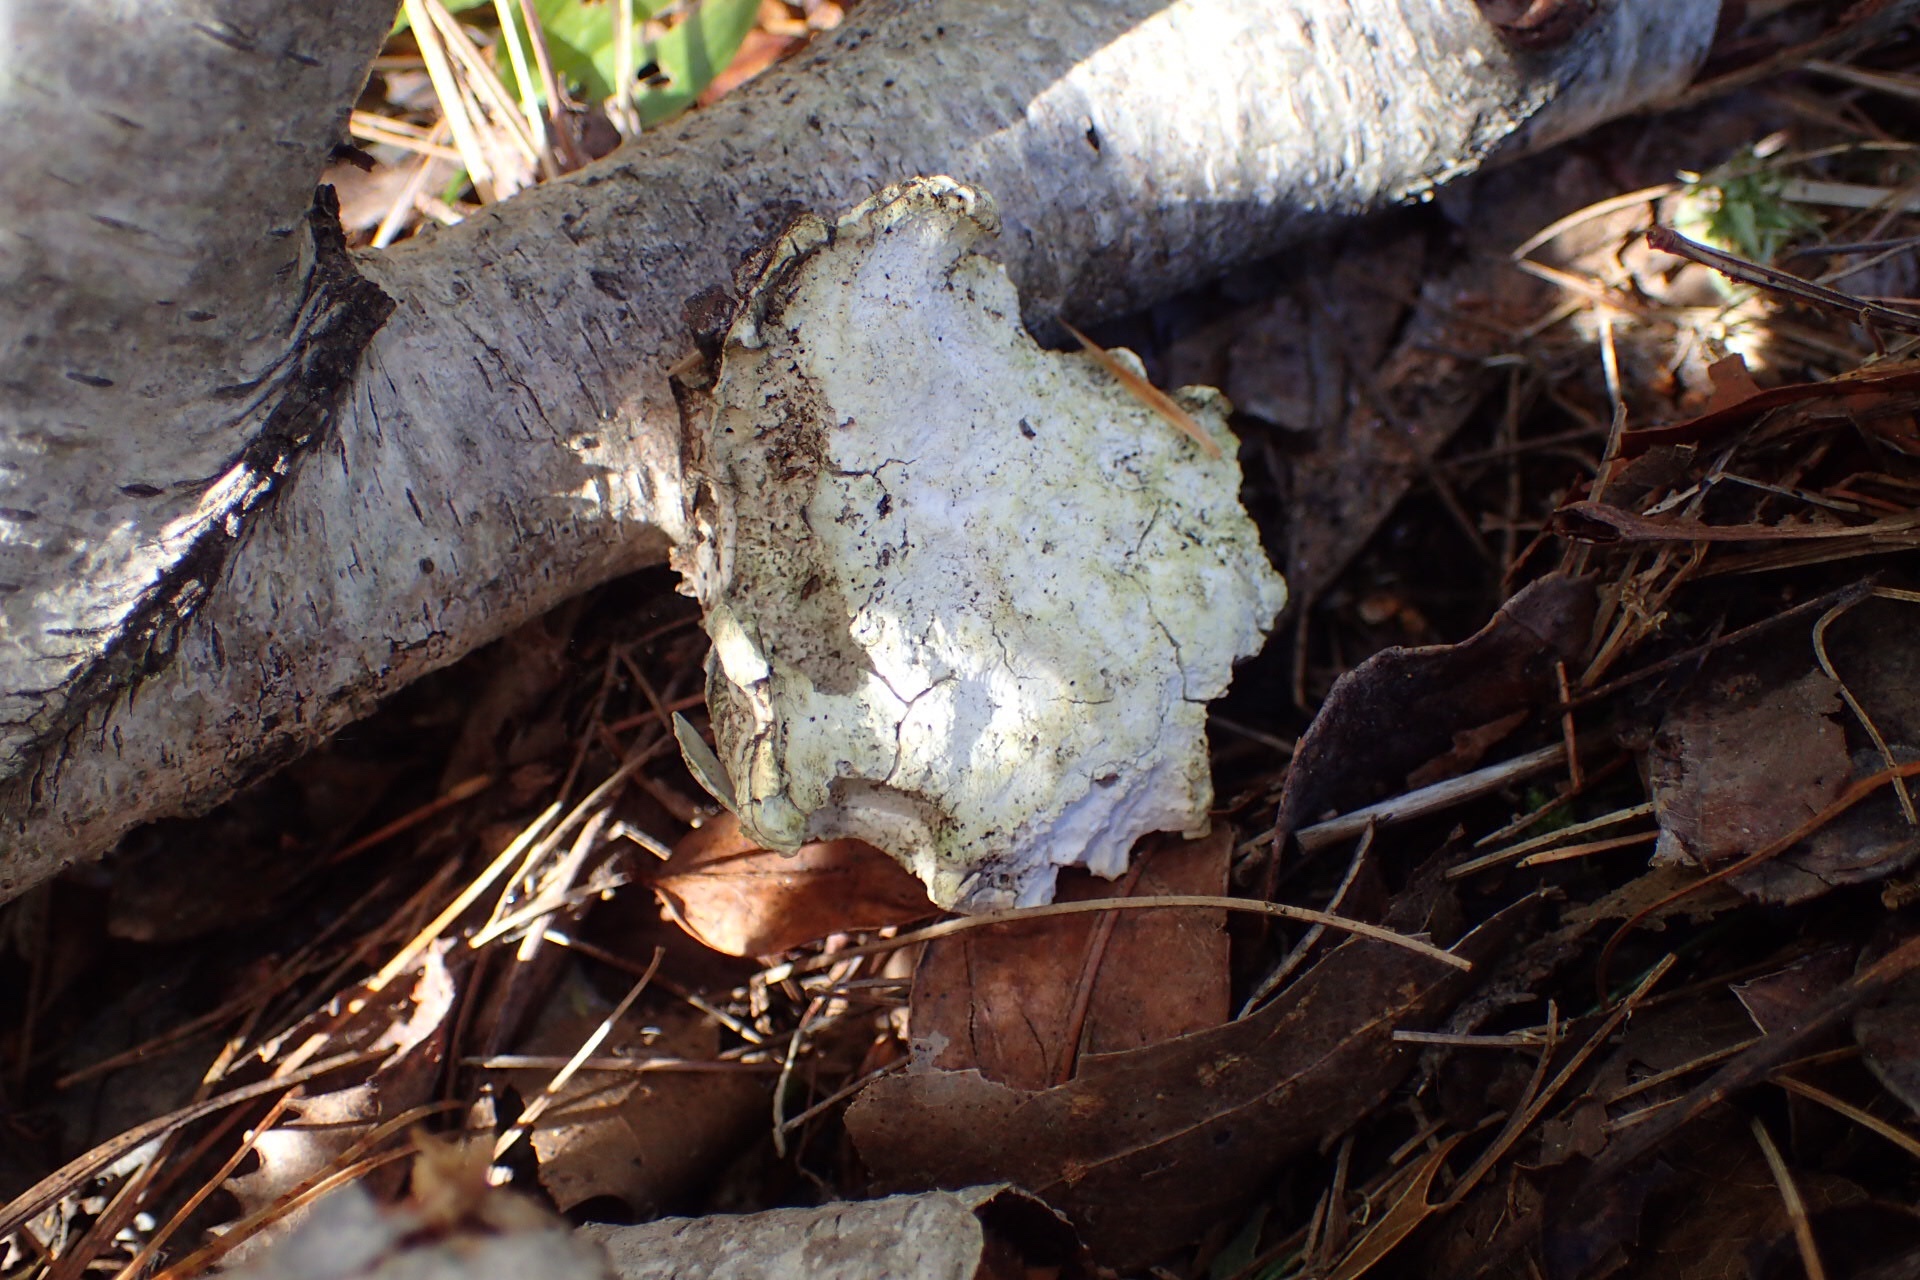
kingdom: Fungi
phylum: Basidiomycota
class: Agaricomycetes
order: Polyporales
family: Fomitopsidaceae
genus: Fomitopsis
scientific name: Fomitopsis betulina
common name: Birch polypore
